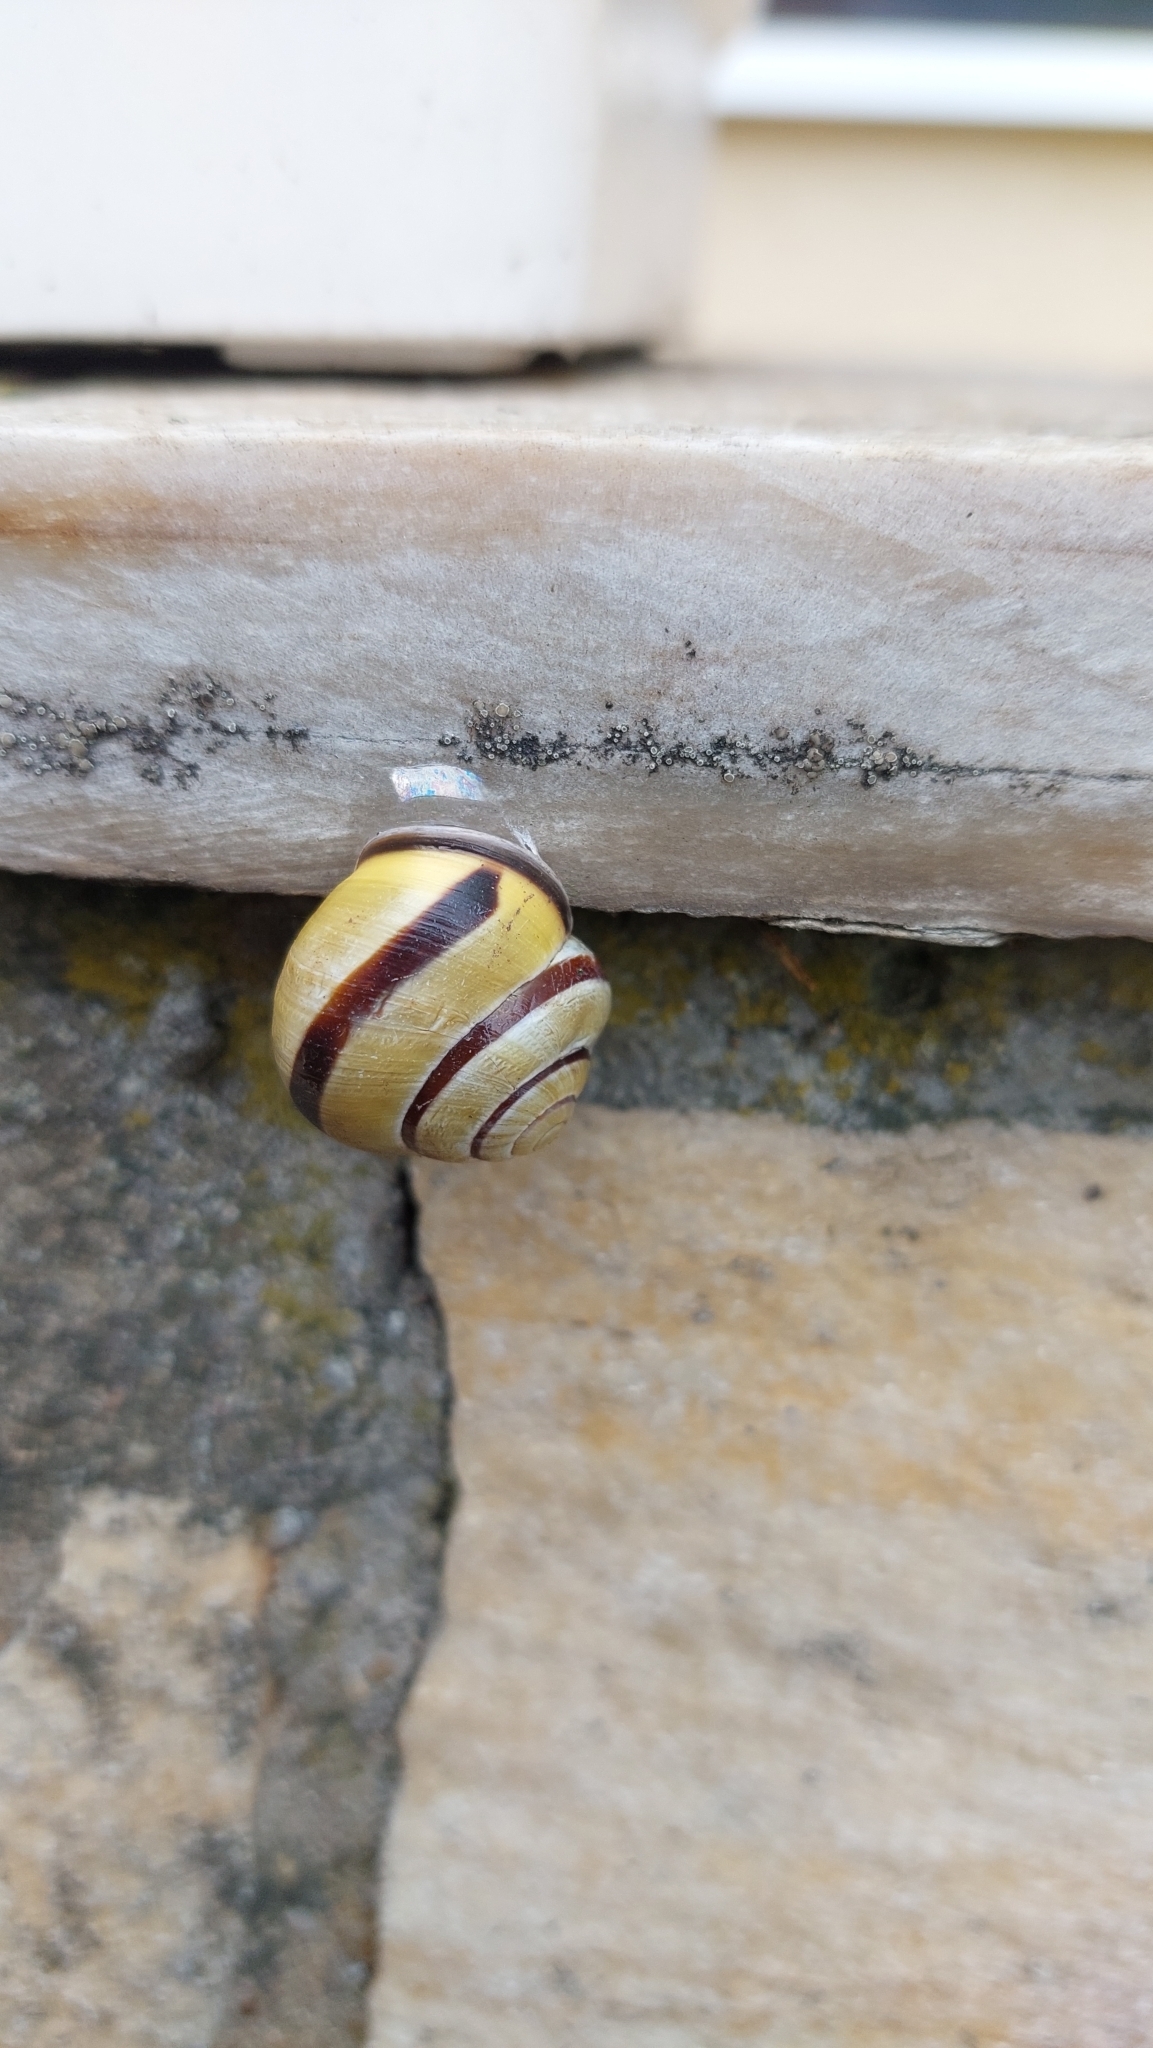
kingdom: Animalia
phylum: Mollusca
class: Gastropoda
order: Stylommatophora
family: Helicidae
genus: Cepaea
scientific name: Cepaea nemoralis
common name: Grovesnail
